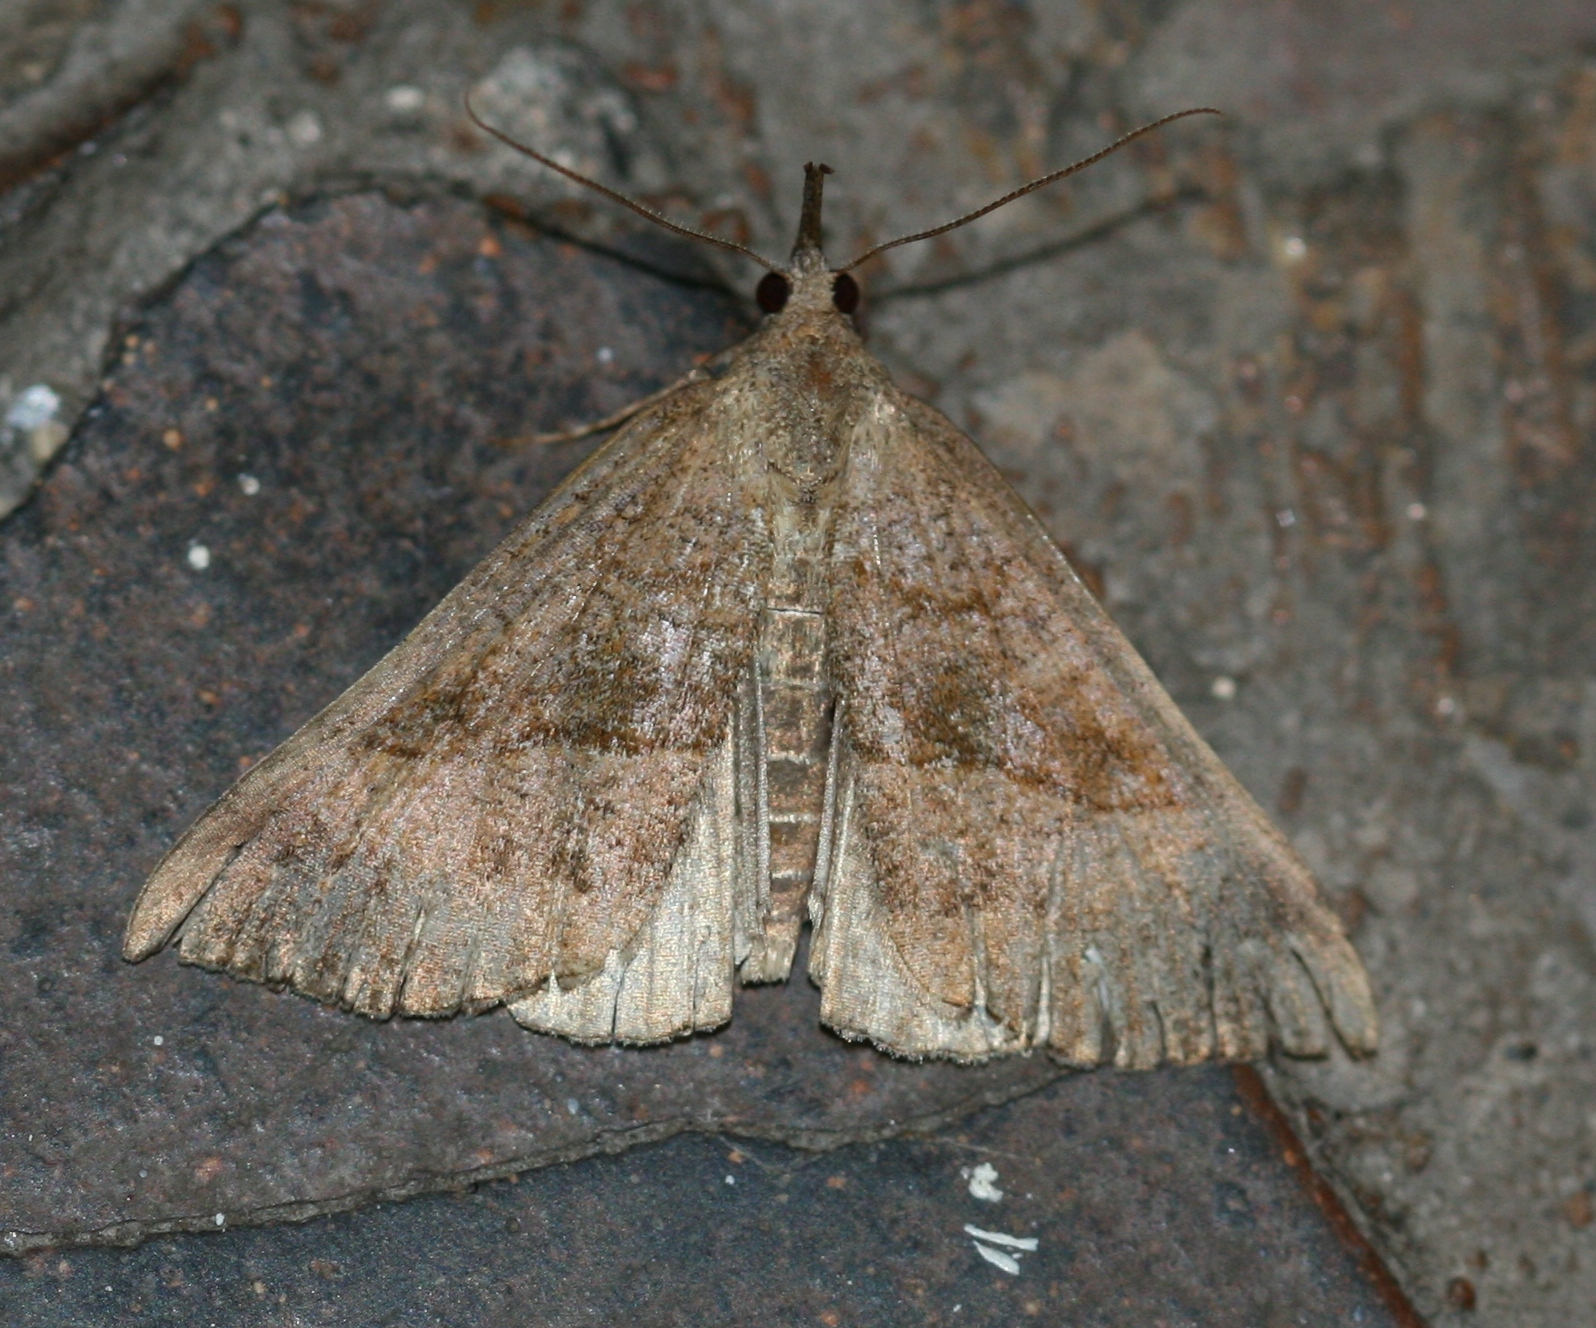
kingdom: Animalia
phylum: Arthropoda
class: Insecta
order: Lepidoptera
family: Erebidae
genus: Hypena
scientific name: Hypena proboscidalis
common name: Snout
